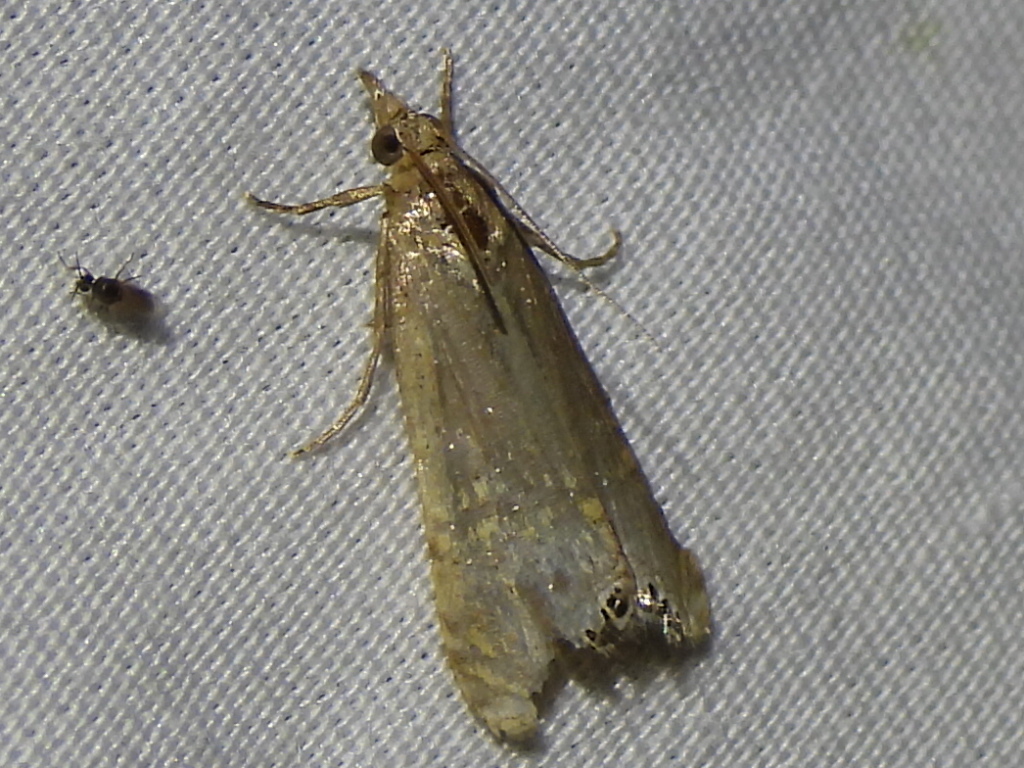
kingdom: Animalia
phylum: Arthropoda
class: Insecta
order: Lepidoptera
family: Crambidae
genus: Euchromius
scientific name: Euchromius ocellea
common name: Necklace veneer moth
